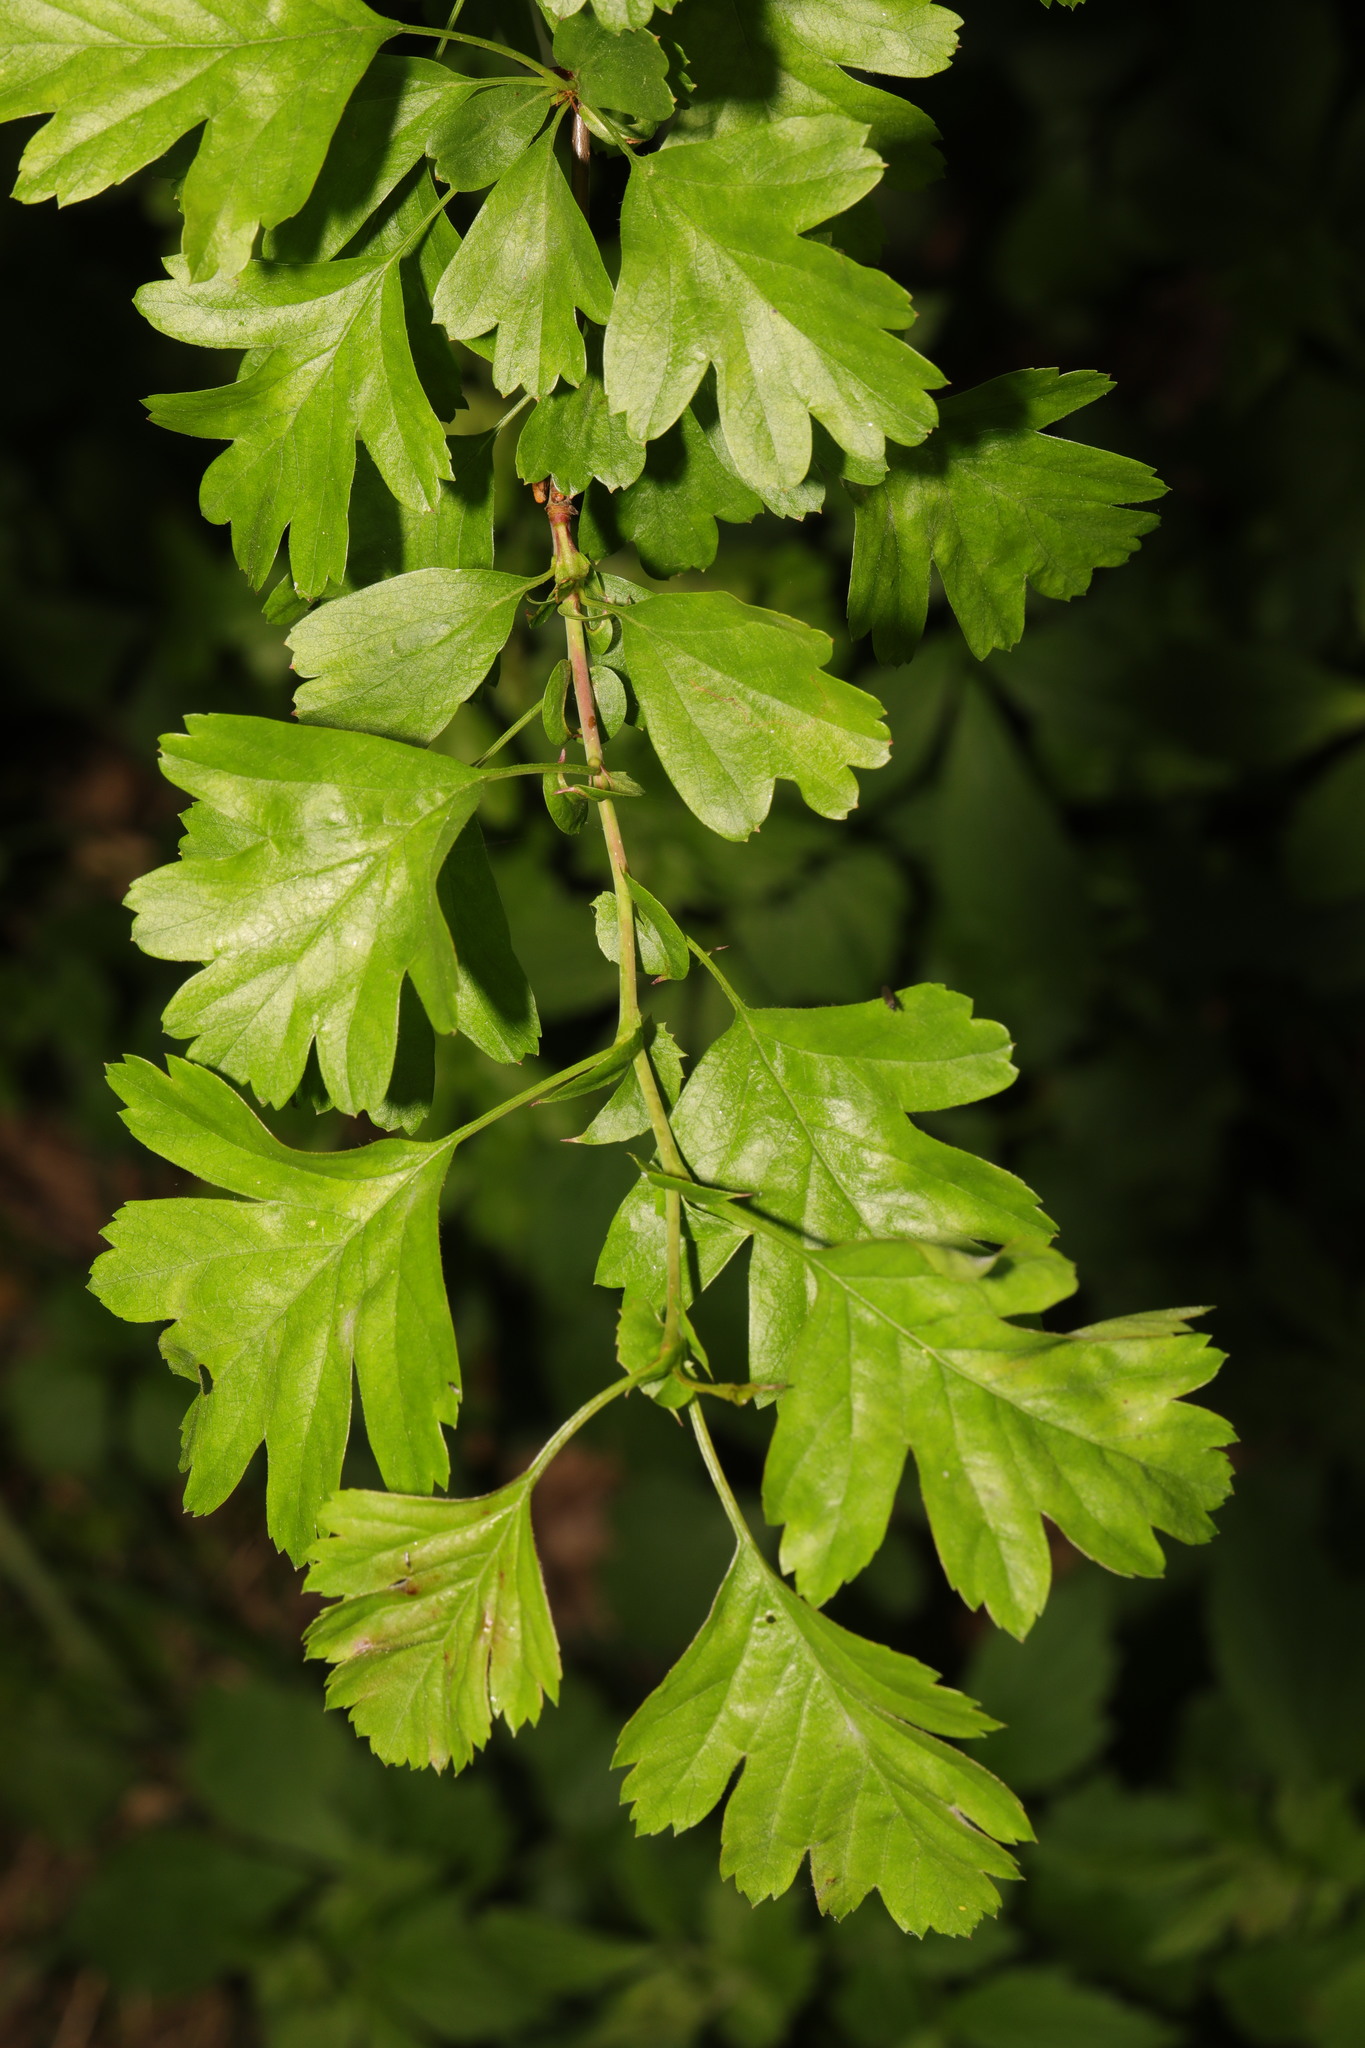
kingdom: Plantae
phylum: Tracheophyta
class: Magnoliopsida
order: Rosales
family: Rosaceae
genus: Crataegus
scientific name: Crataegus monogyna
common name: Hawthorn
